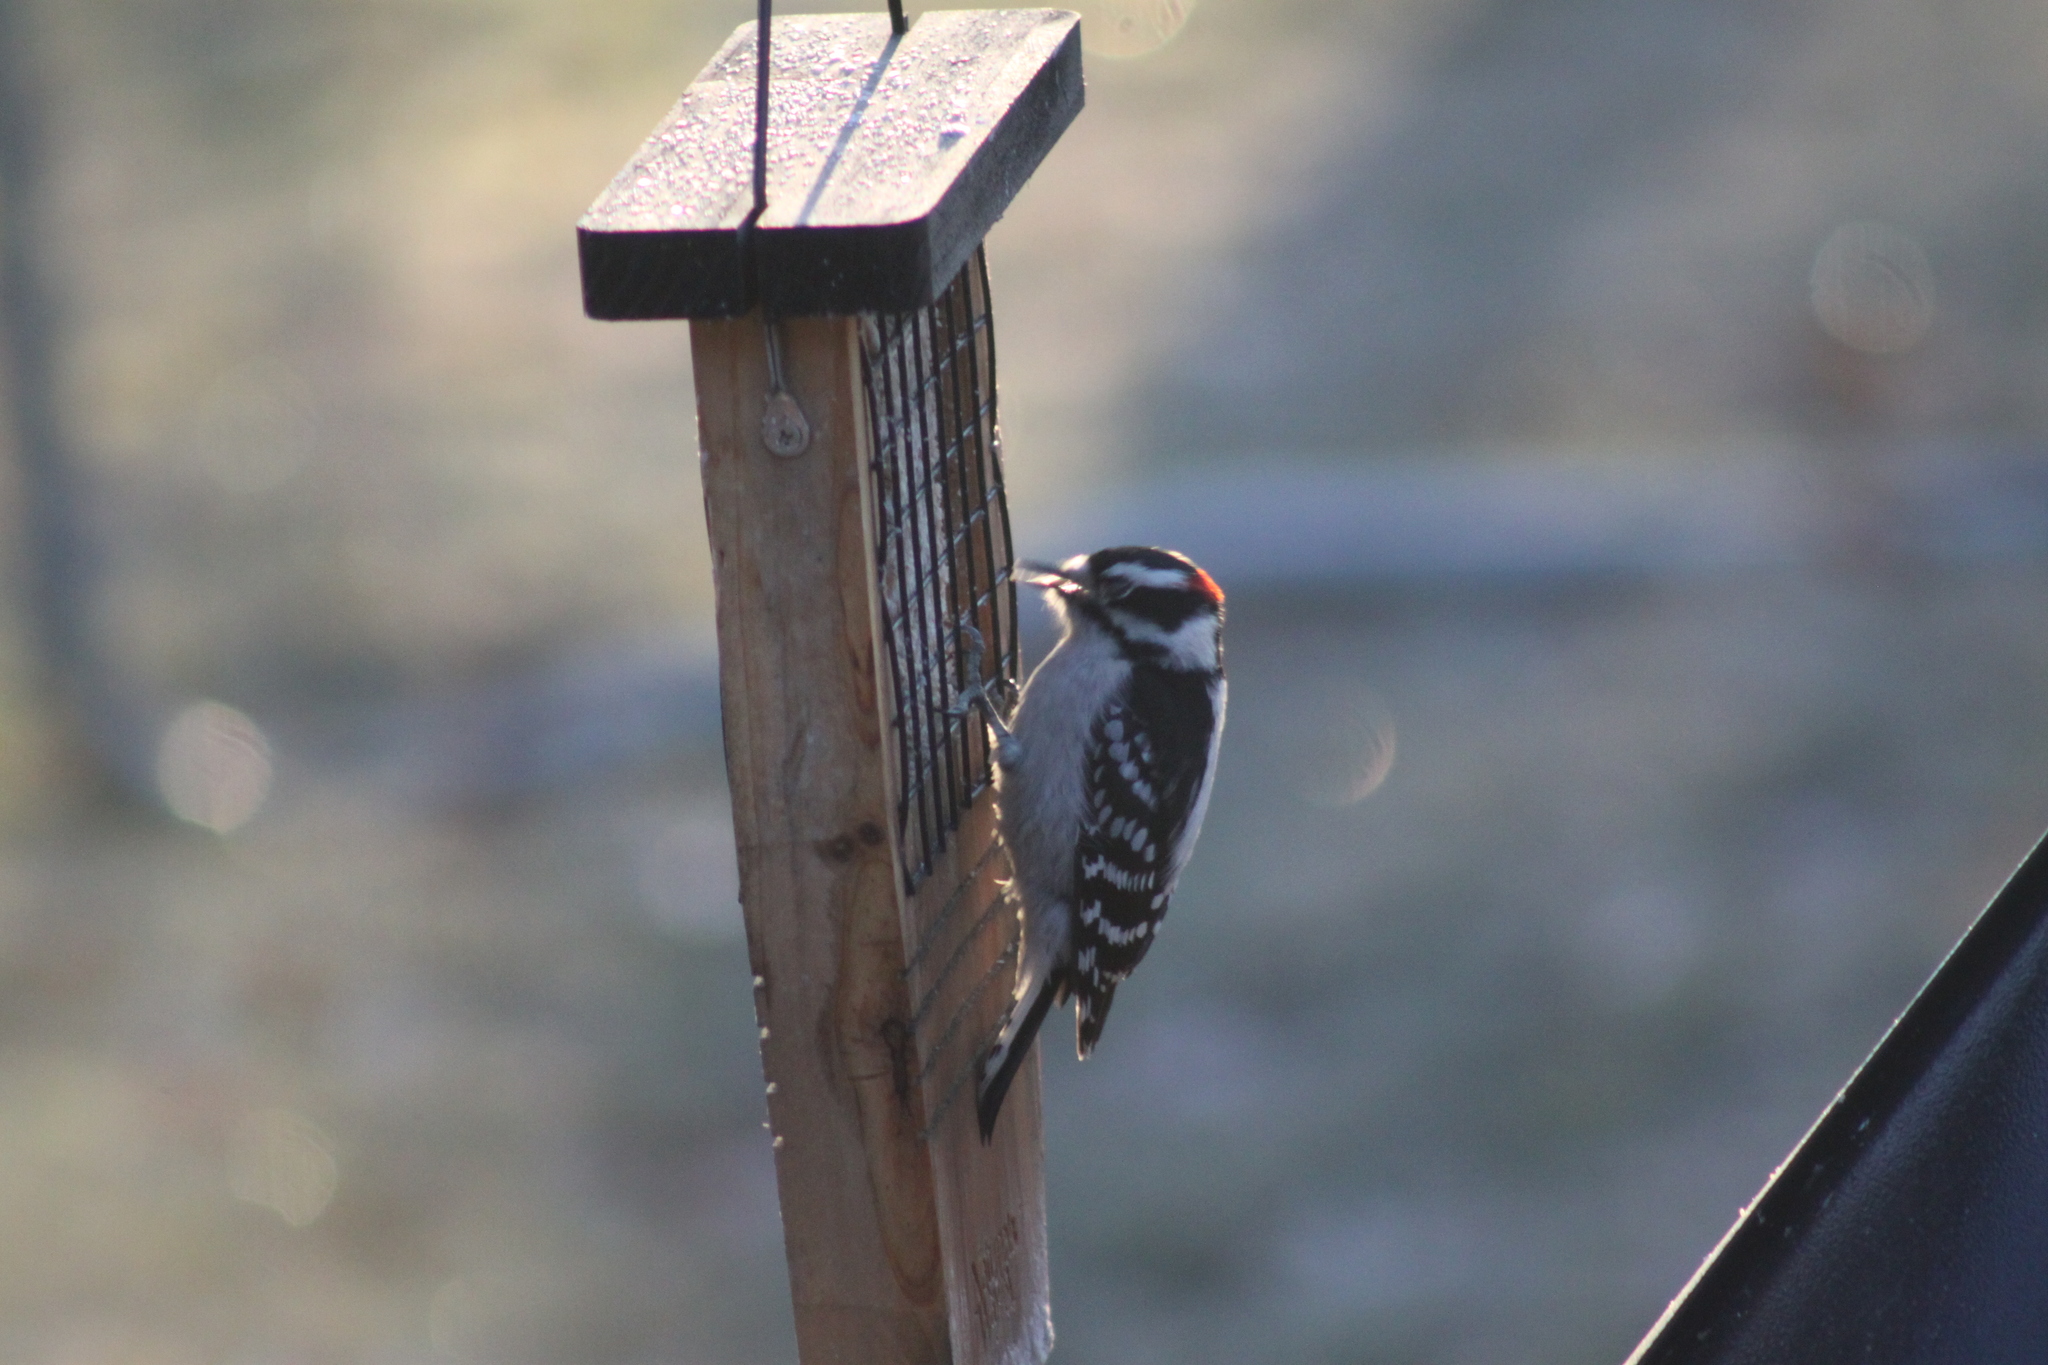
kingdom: Animalia
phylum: Chordata
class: Aves
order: Piciformes
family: Picidae
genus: Dryobates
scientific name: Dryobates pubescens
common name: Downy woodpecker
